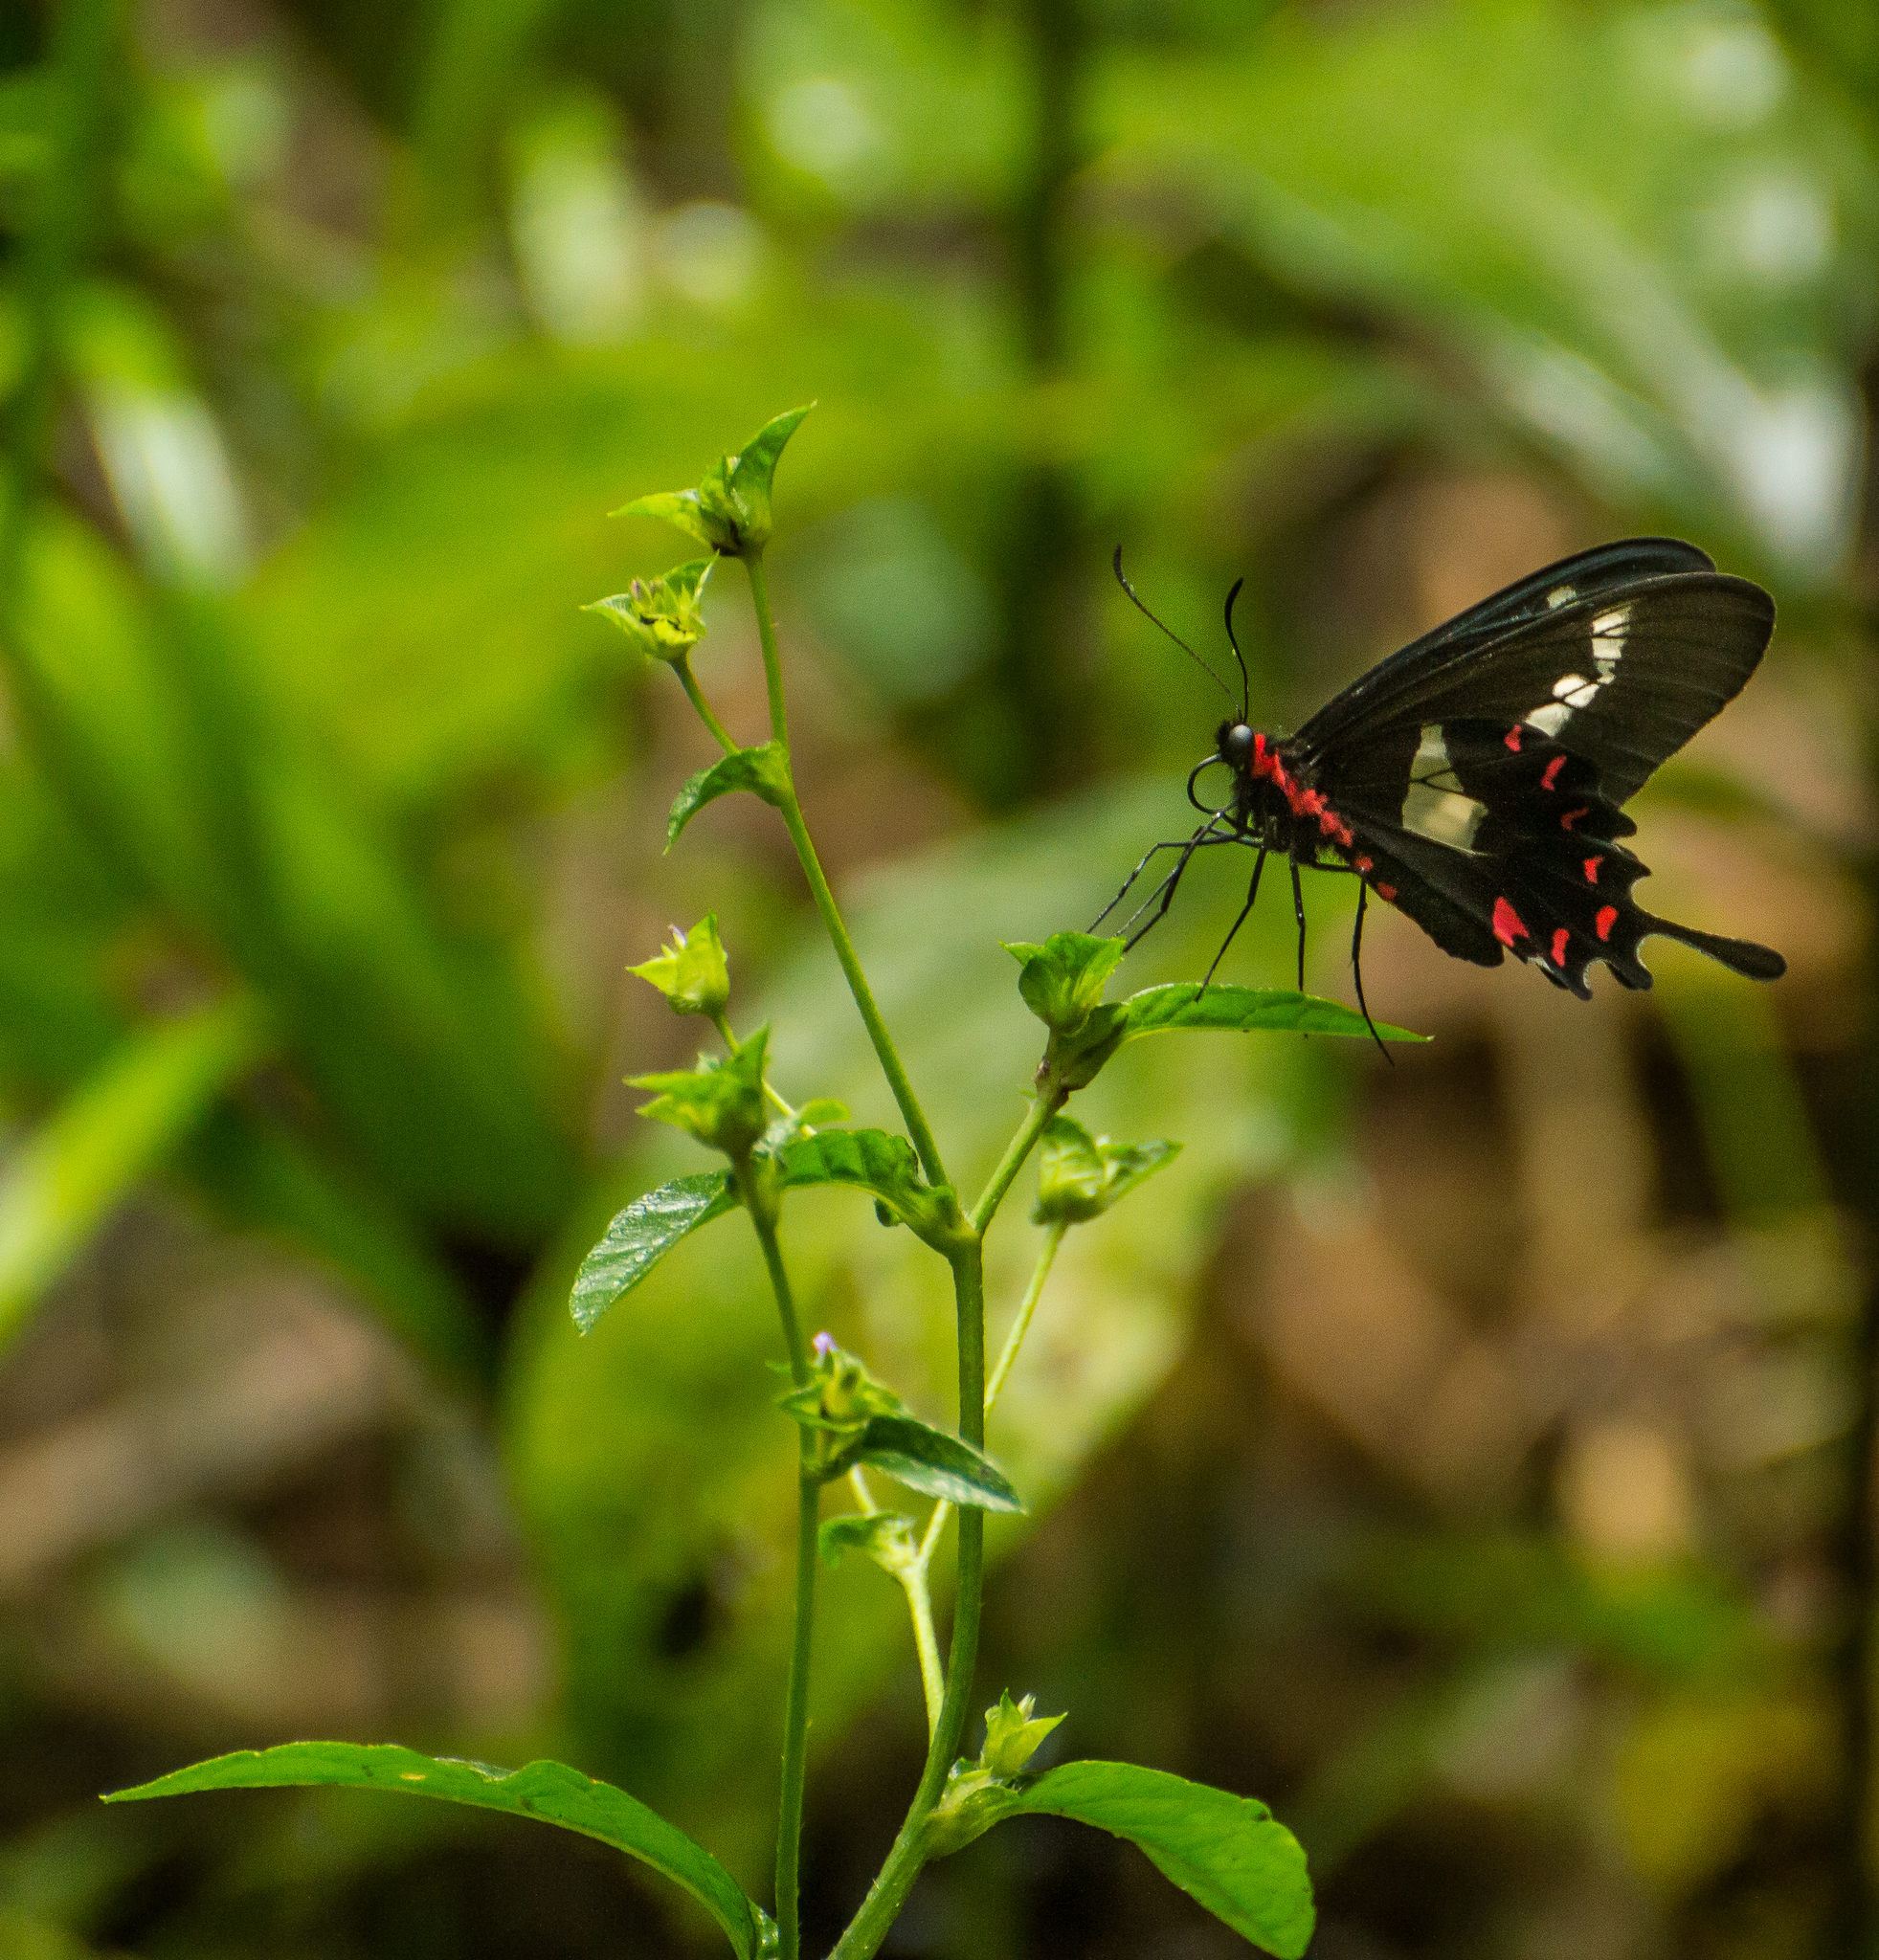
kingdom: Animalia
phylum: Arthropoda
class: Insecta
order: Lepidoptera
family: Papilionidae
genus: Parides
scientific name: Parides agavus
